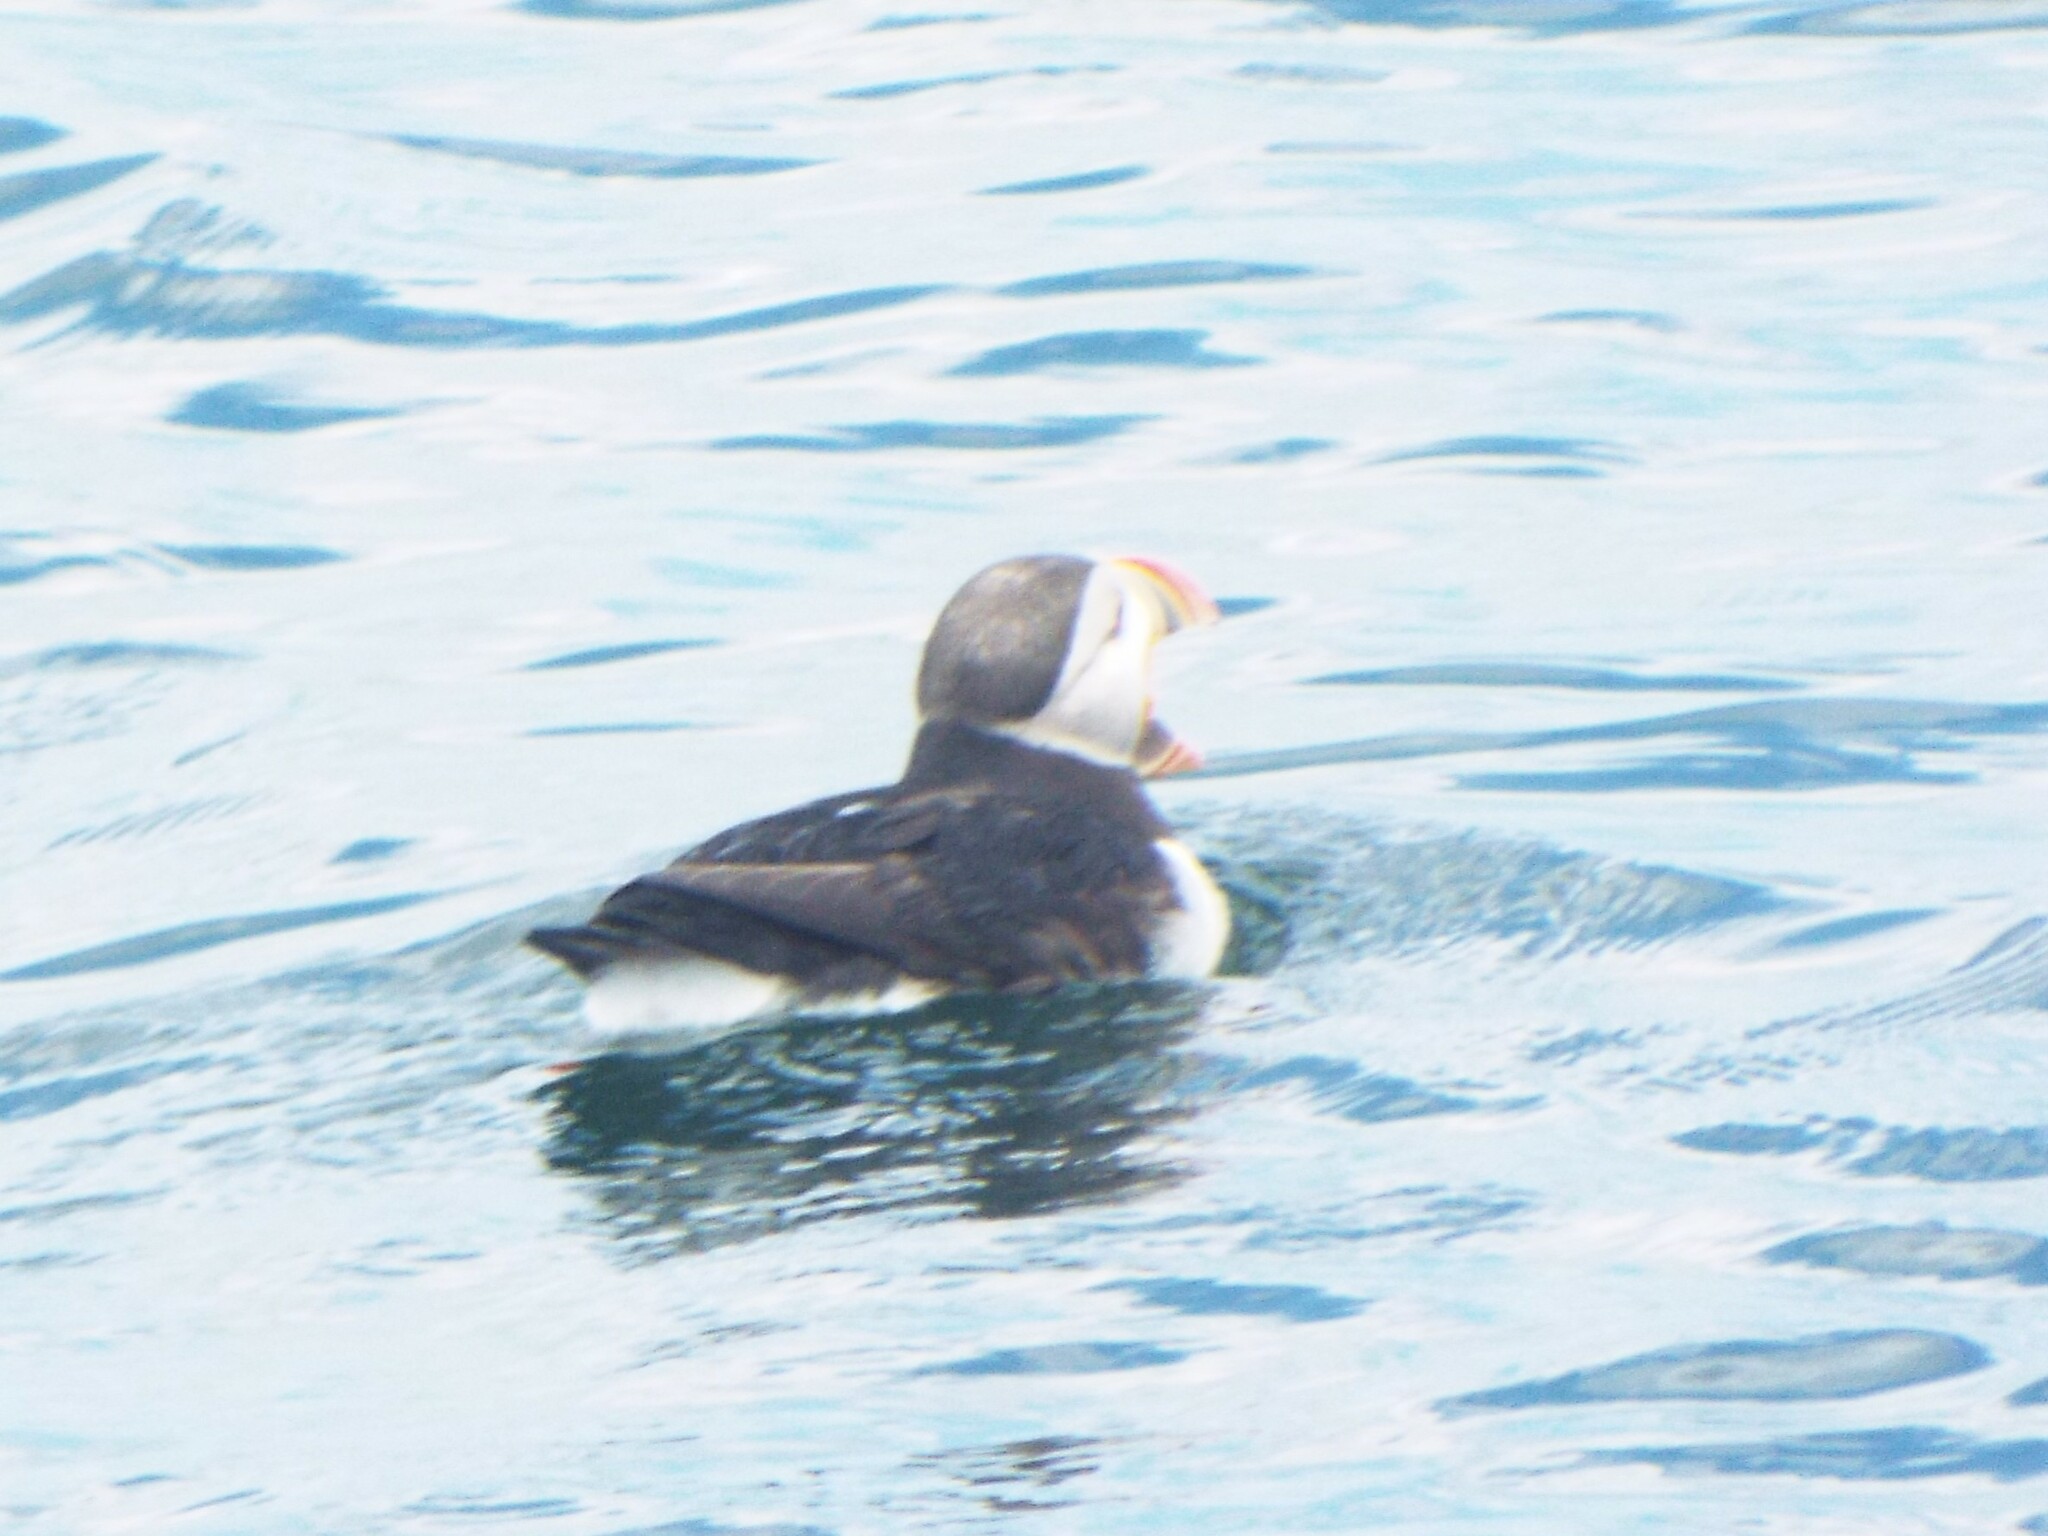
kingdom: Animalia
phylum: Chordata
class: Aves
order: Charadriiformes
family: Alcidae
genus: Fratercula
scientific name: Fratercula arctica
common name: Atlantic puffin
